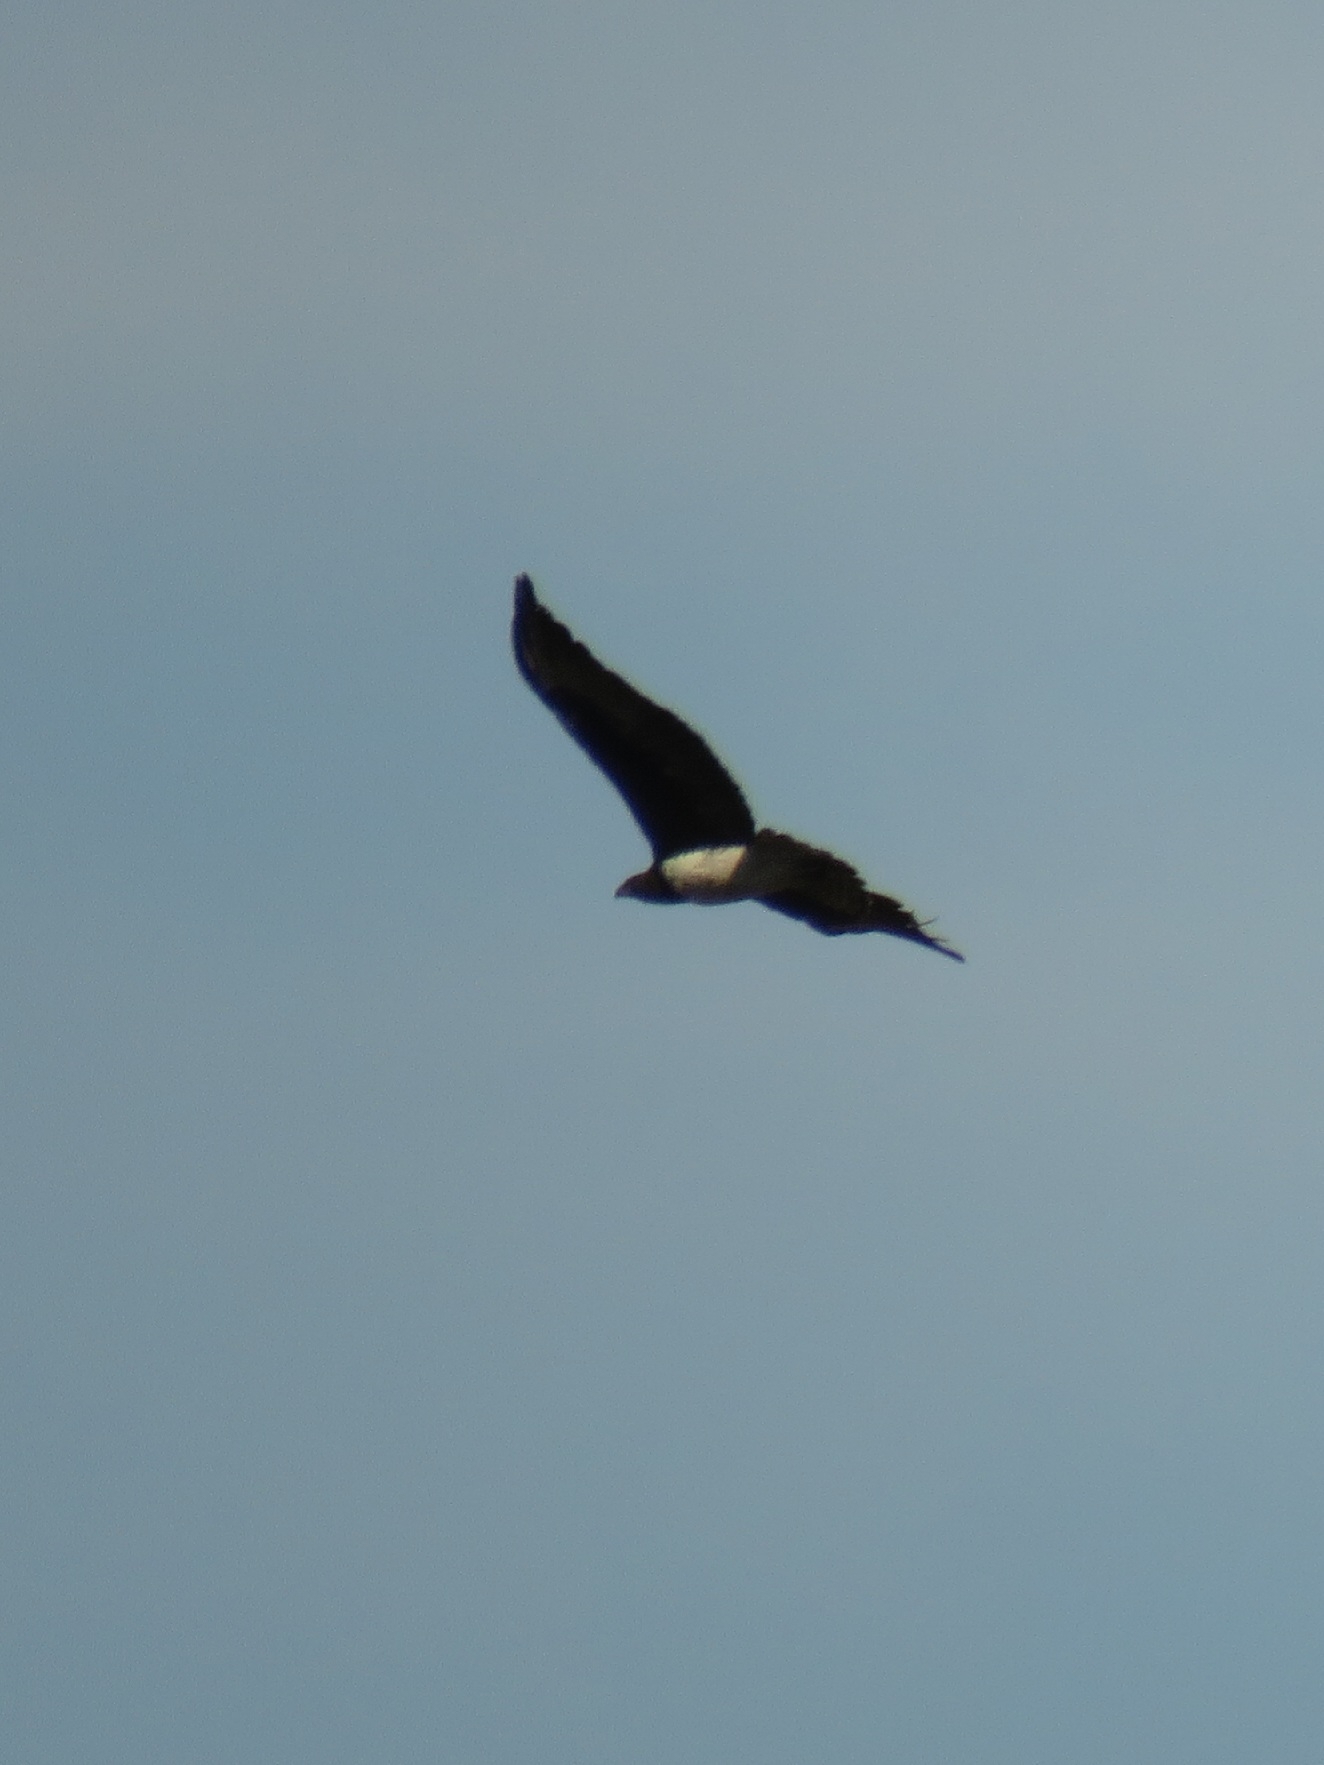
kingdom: Animalia
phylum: Chordata
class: Aves
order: Accipitriformes
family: Accipitridae
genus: Polemaetus
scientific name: Polemaetus bellicosus
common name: Martial eagle
